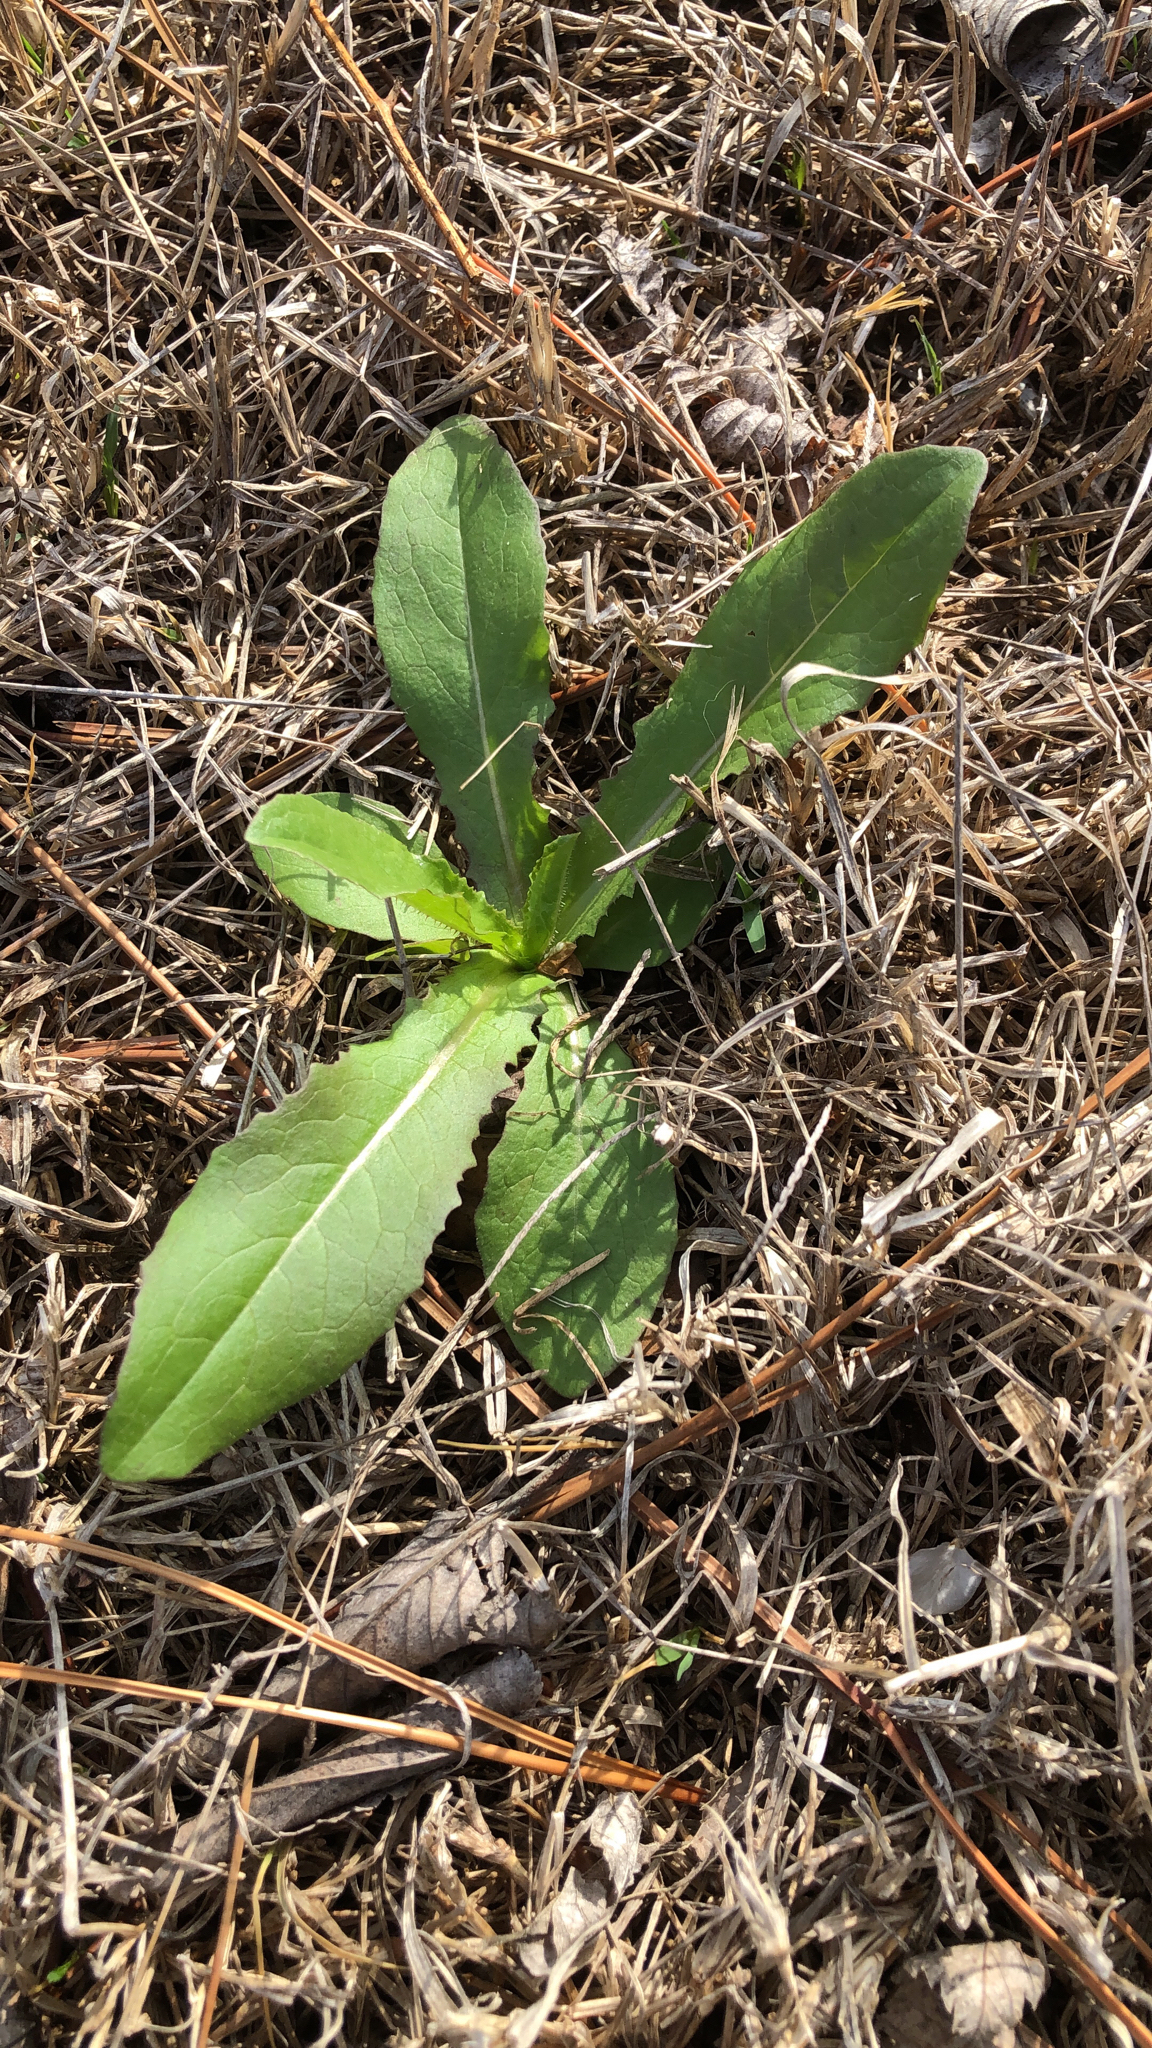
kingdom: Plantae
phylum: Tracheophyta
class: Magnoliopsida
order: Asterales
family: Asteraceae
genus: Lactuca
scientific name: Lactuca serriola
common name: Prickly lettuce
